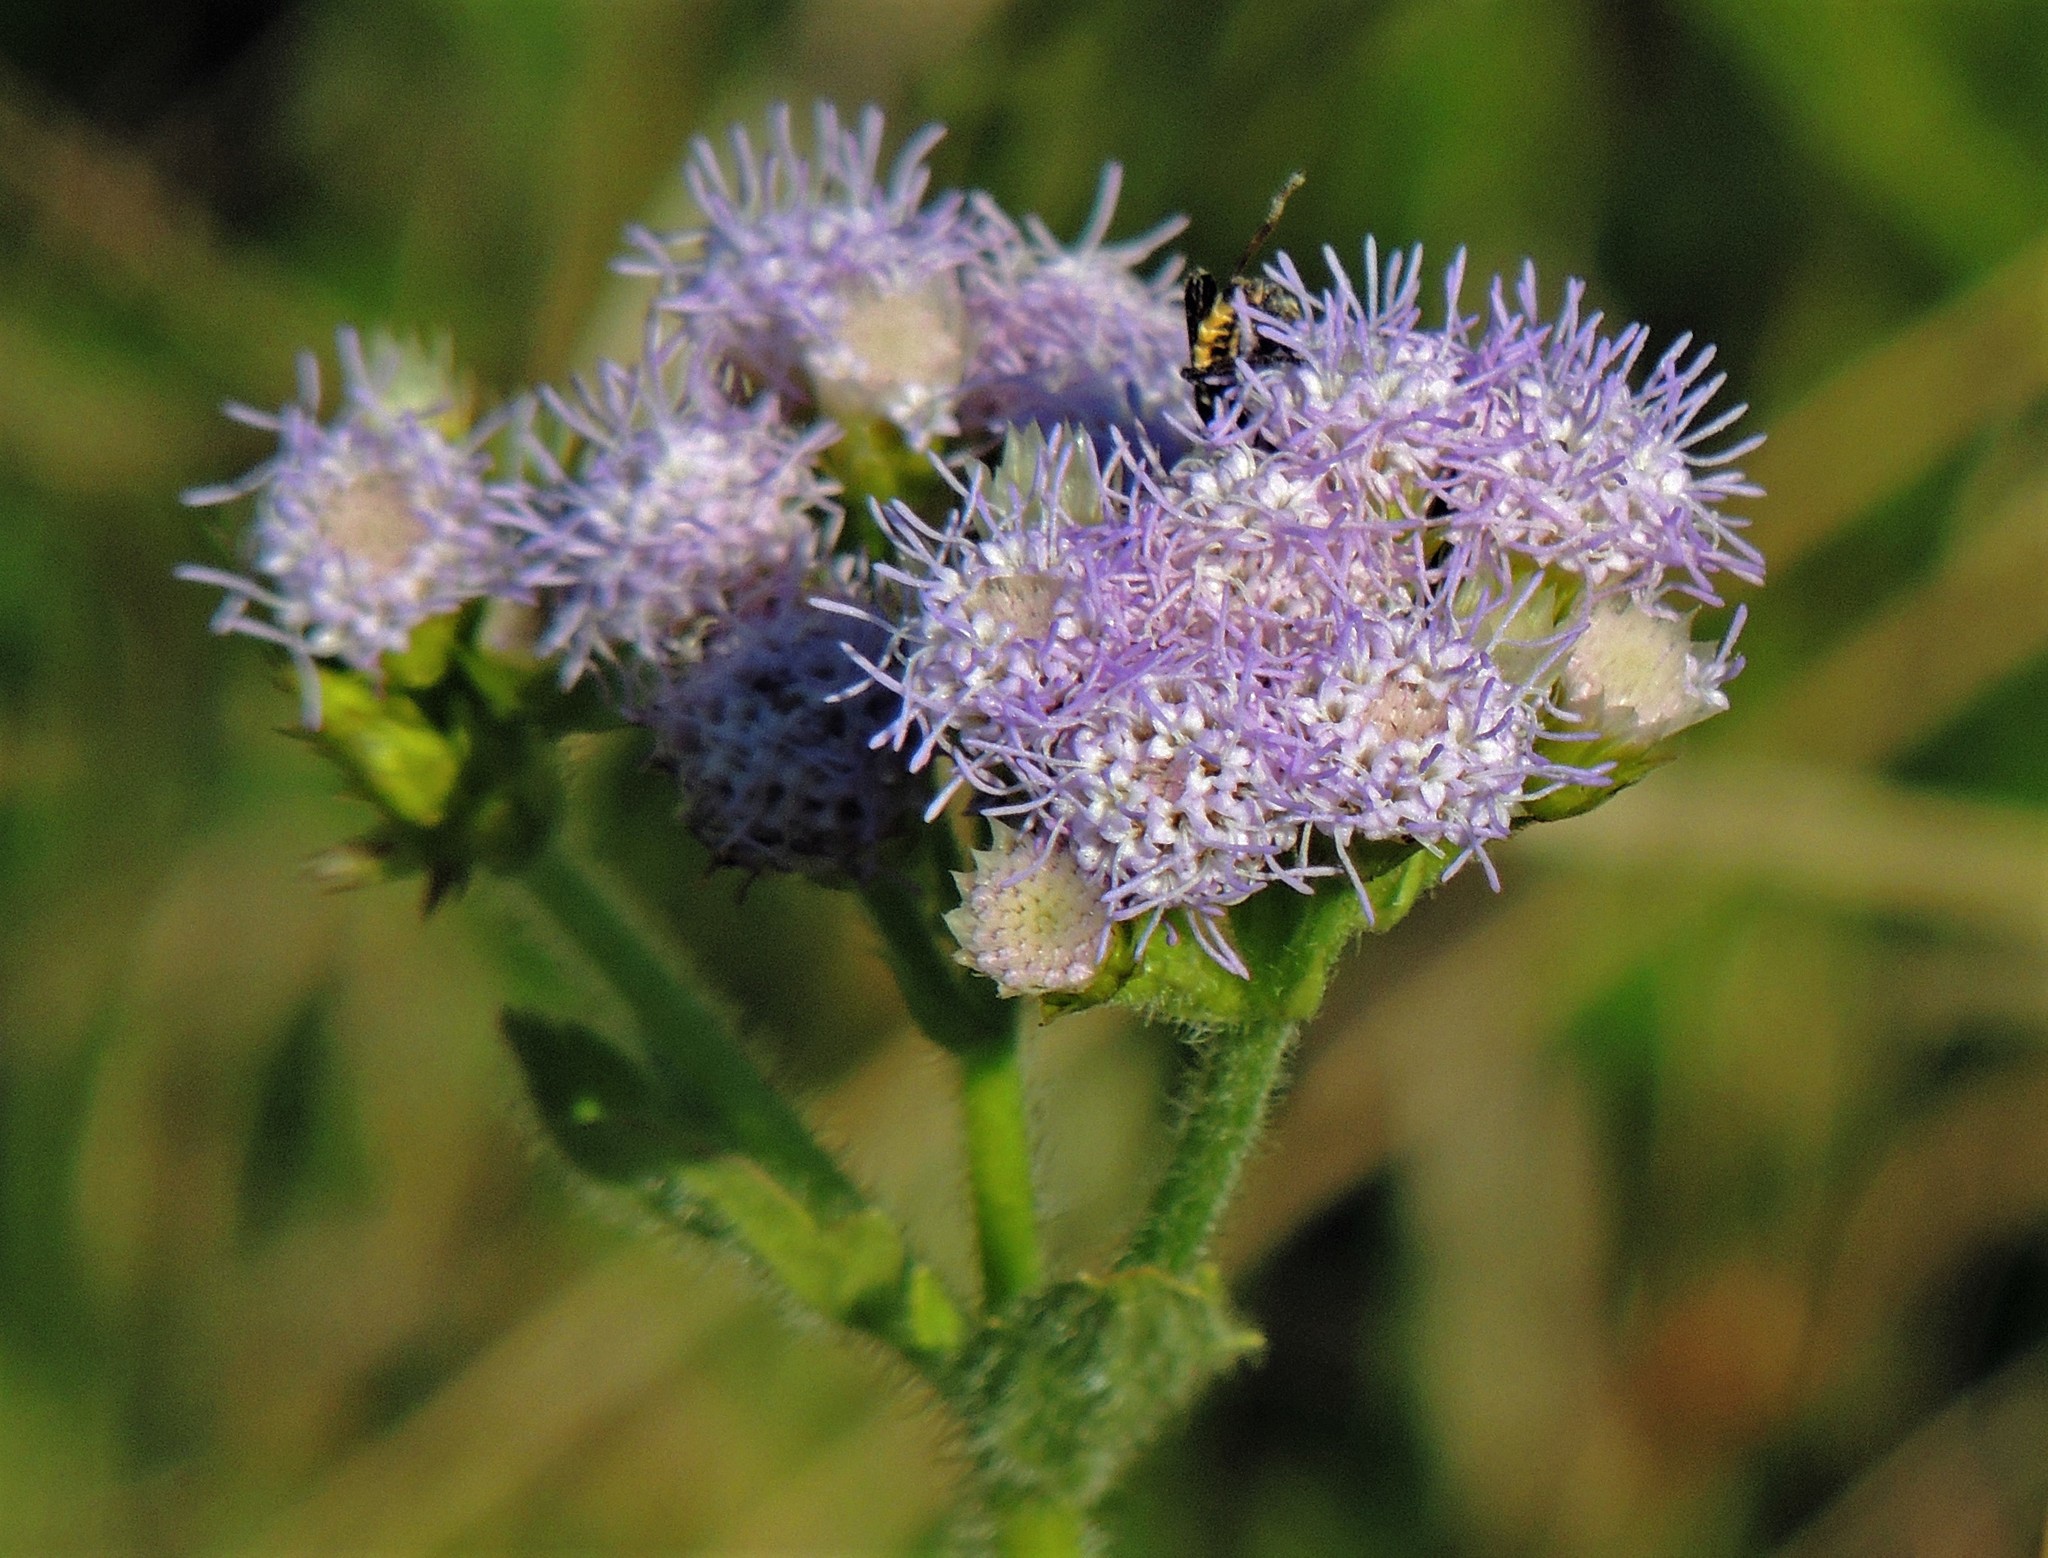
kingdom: Plantae
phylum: Tracheophyta
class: Magnoliopsida
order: Asterales
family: Asteraceae
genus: Praxelis
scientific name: Praxelis clematidea
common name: Praxelis
